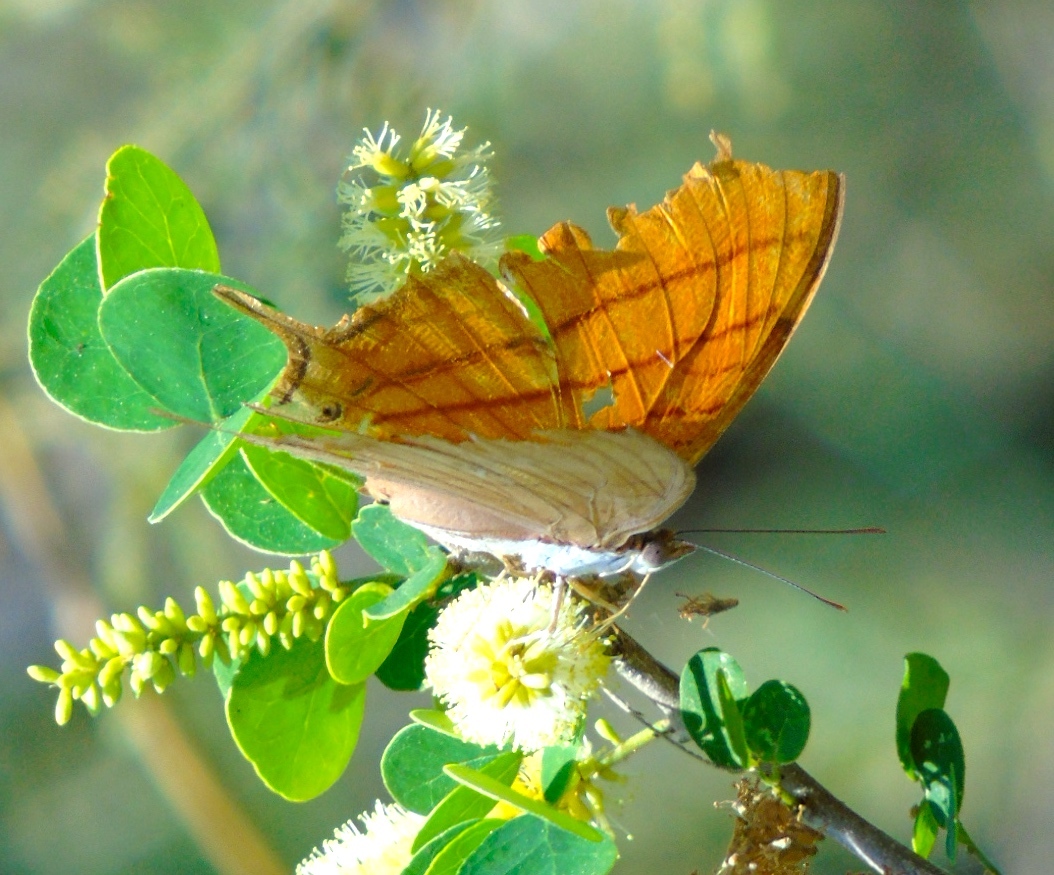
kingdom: Animalia
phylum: Arthropoda
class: Insecta
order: Lepidoptera
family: Nymphalidae
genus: Marpesia
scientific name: Marpesia petreus
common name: Red dagger wing
